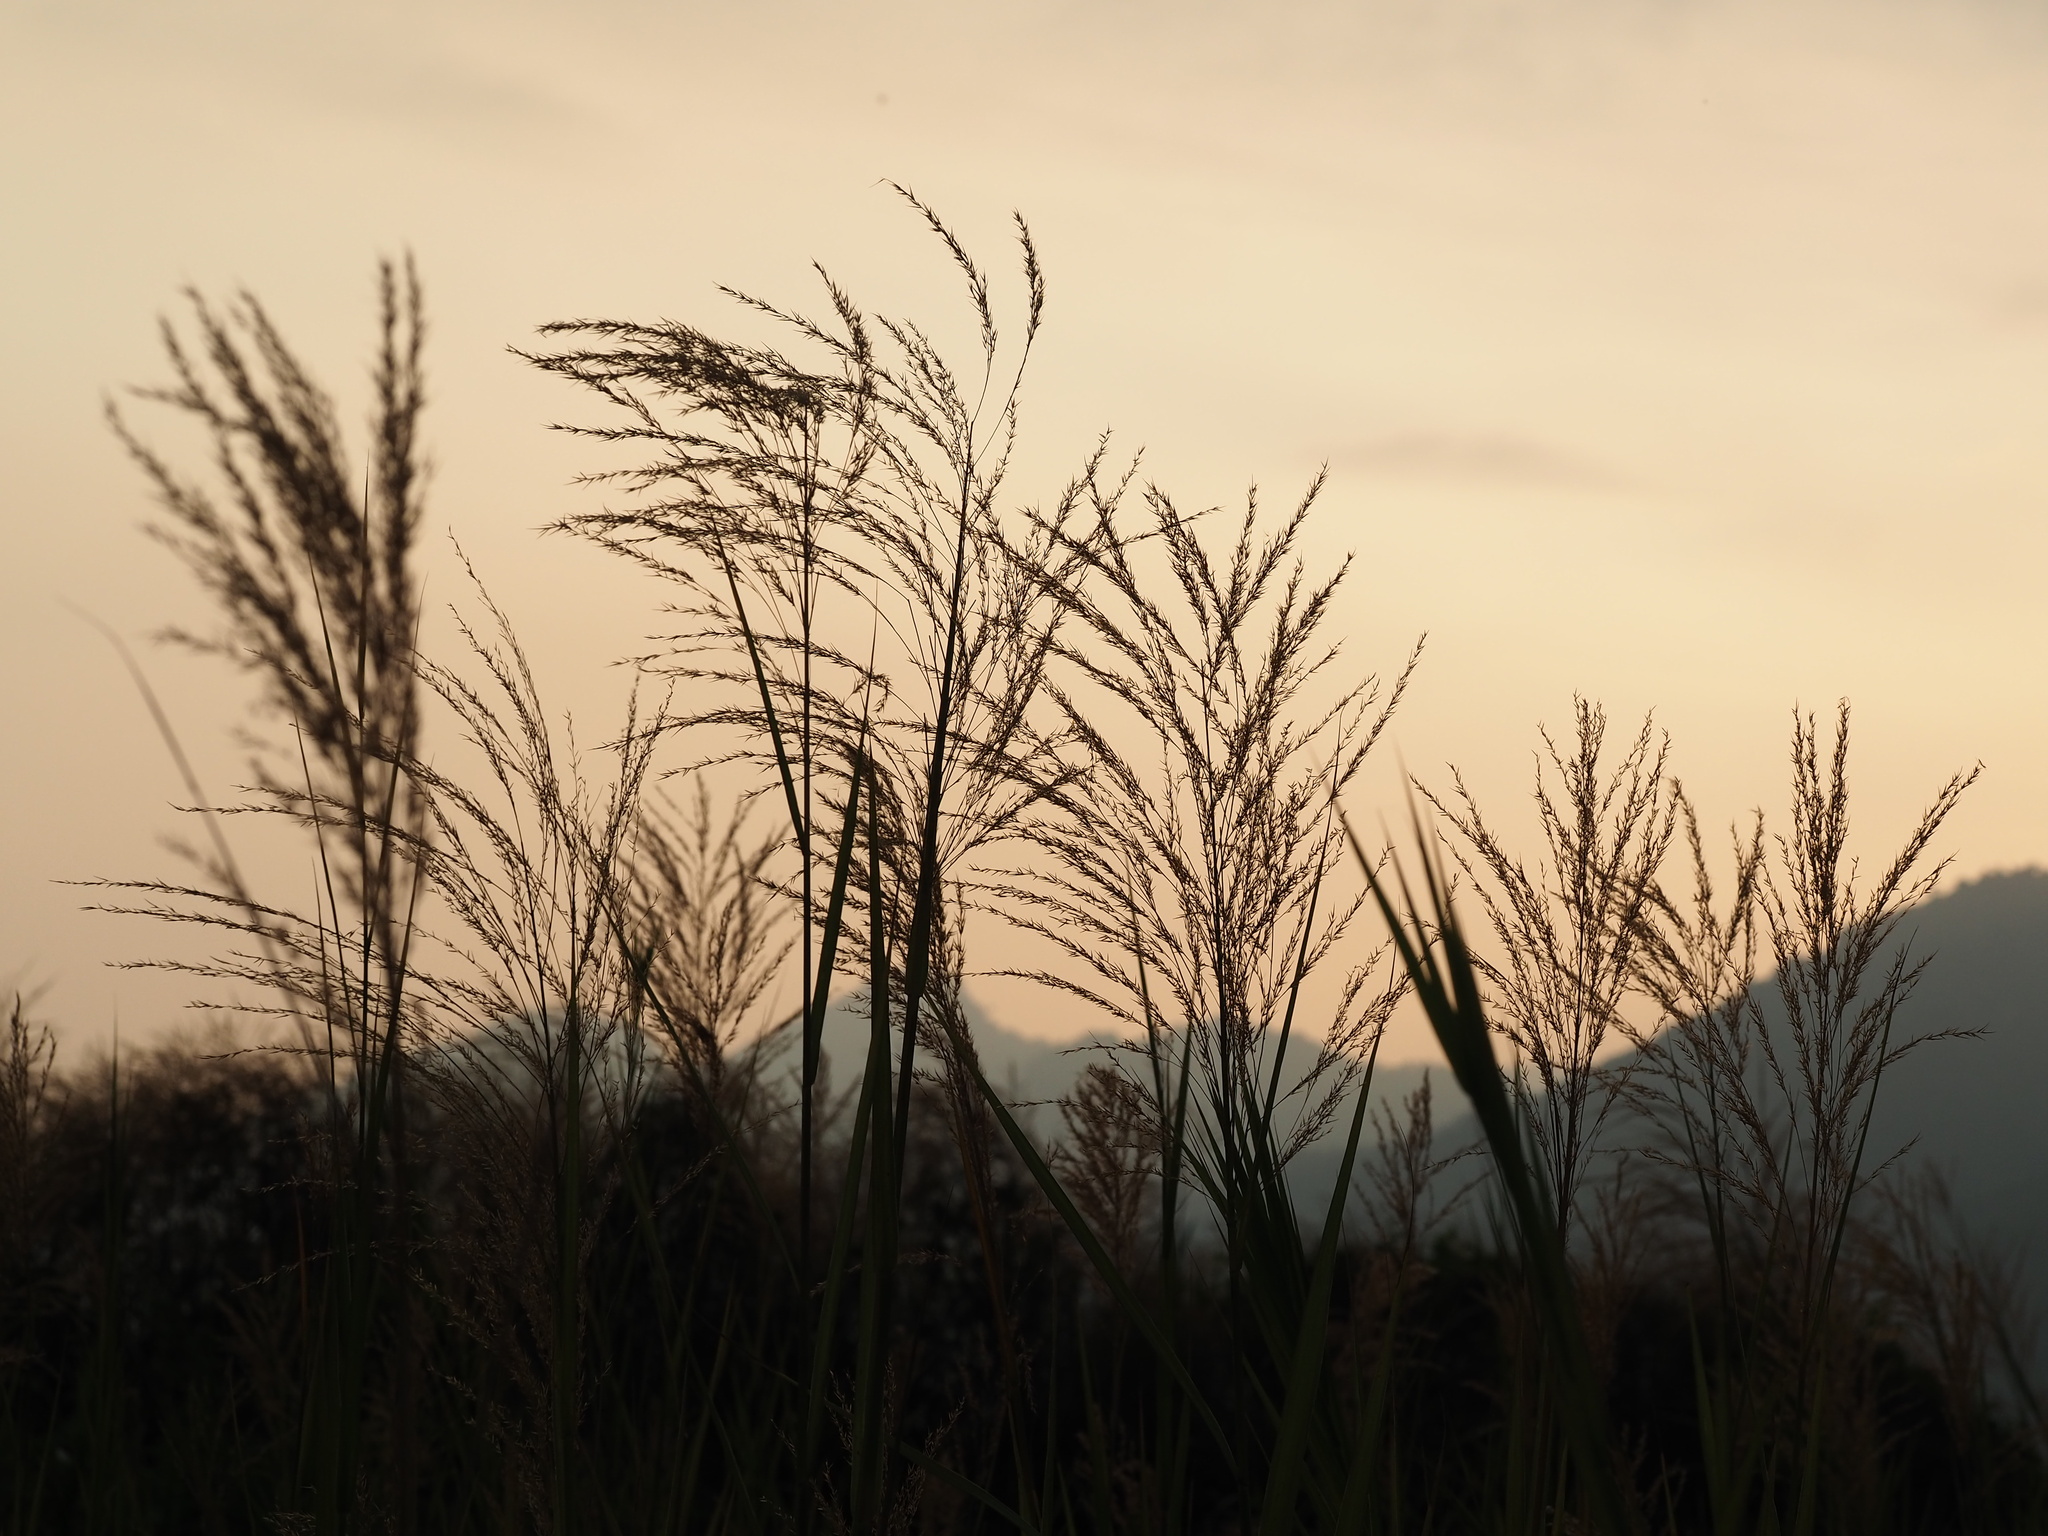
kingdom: Plantae
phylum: Tracheophyta
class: Liliopsida
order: Poales
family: Poaceae
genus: Phragmites
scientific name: Phragmites karka
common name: Tropical reed
